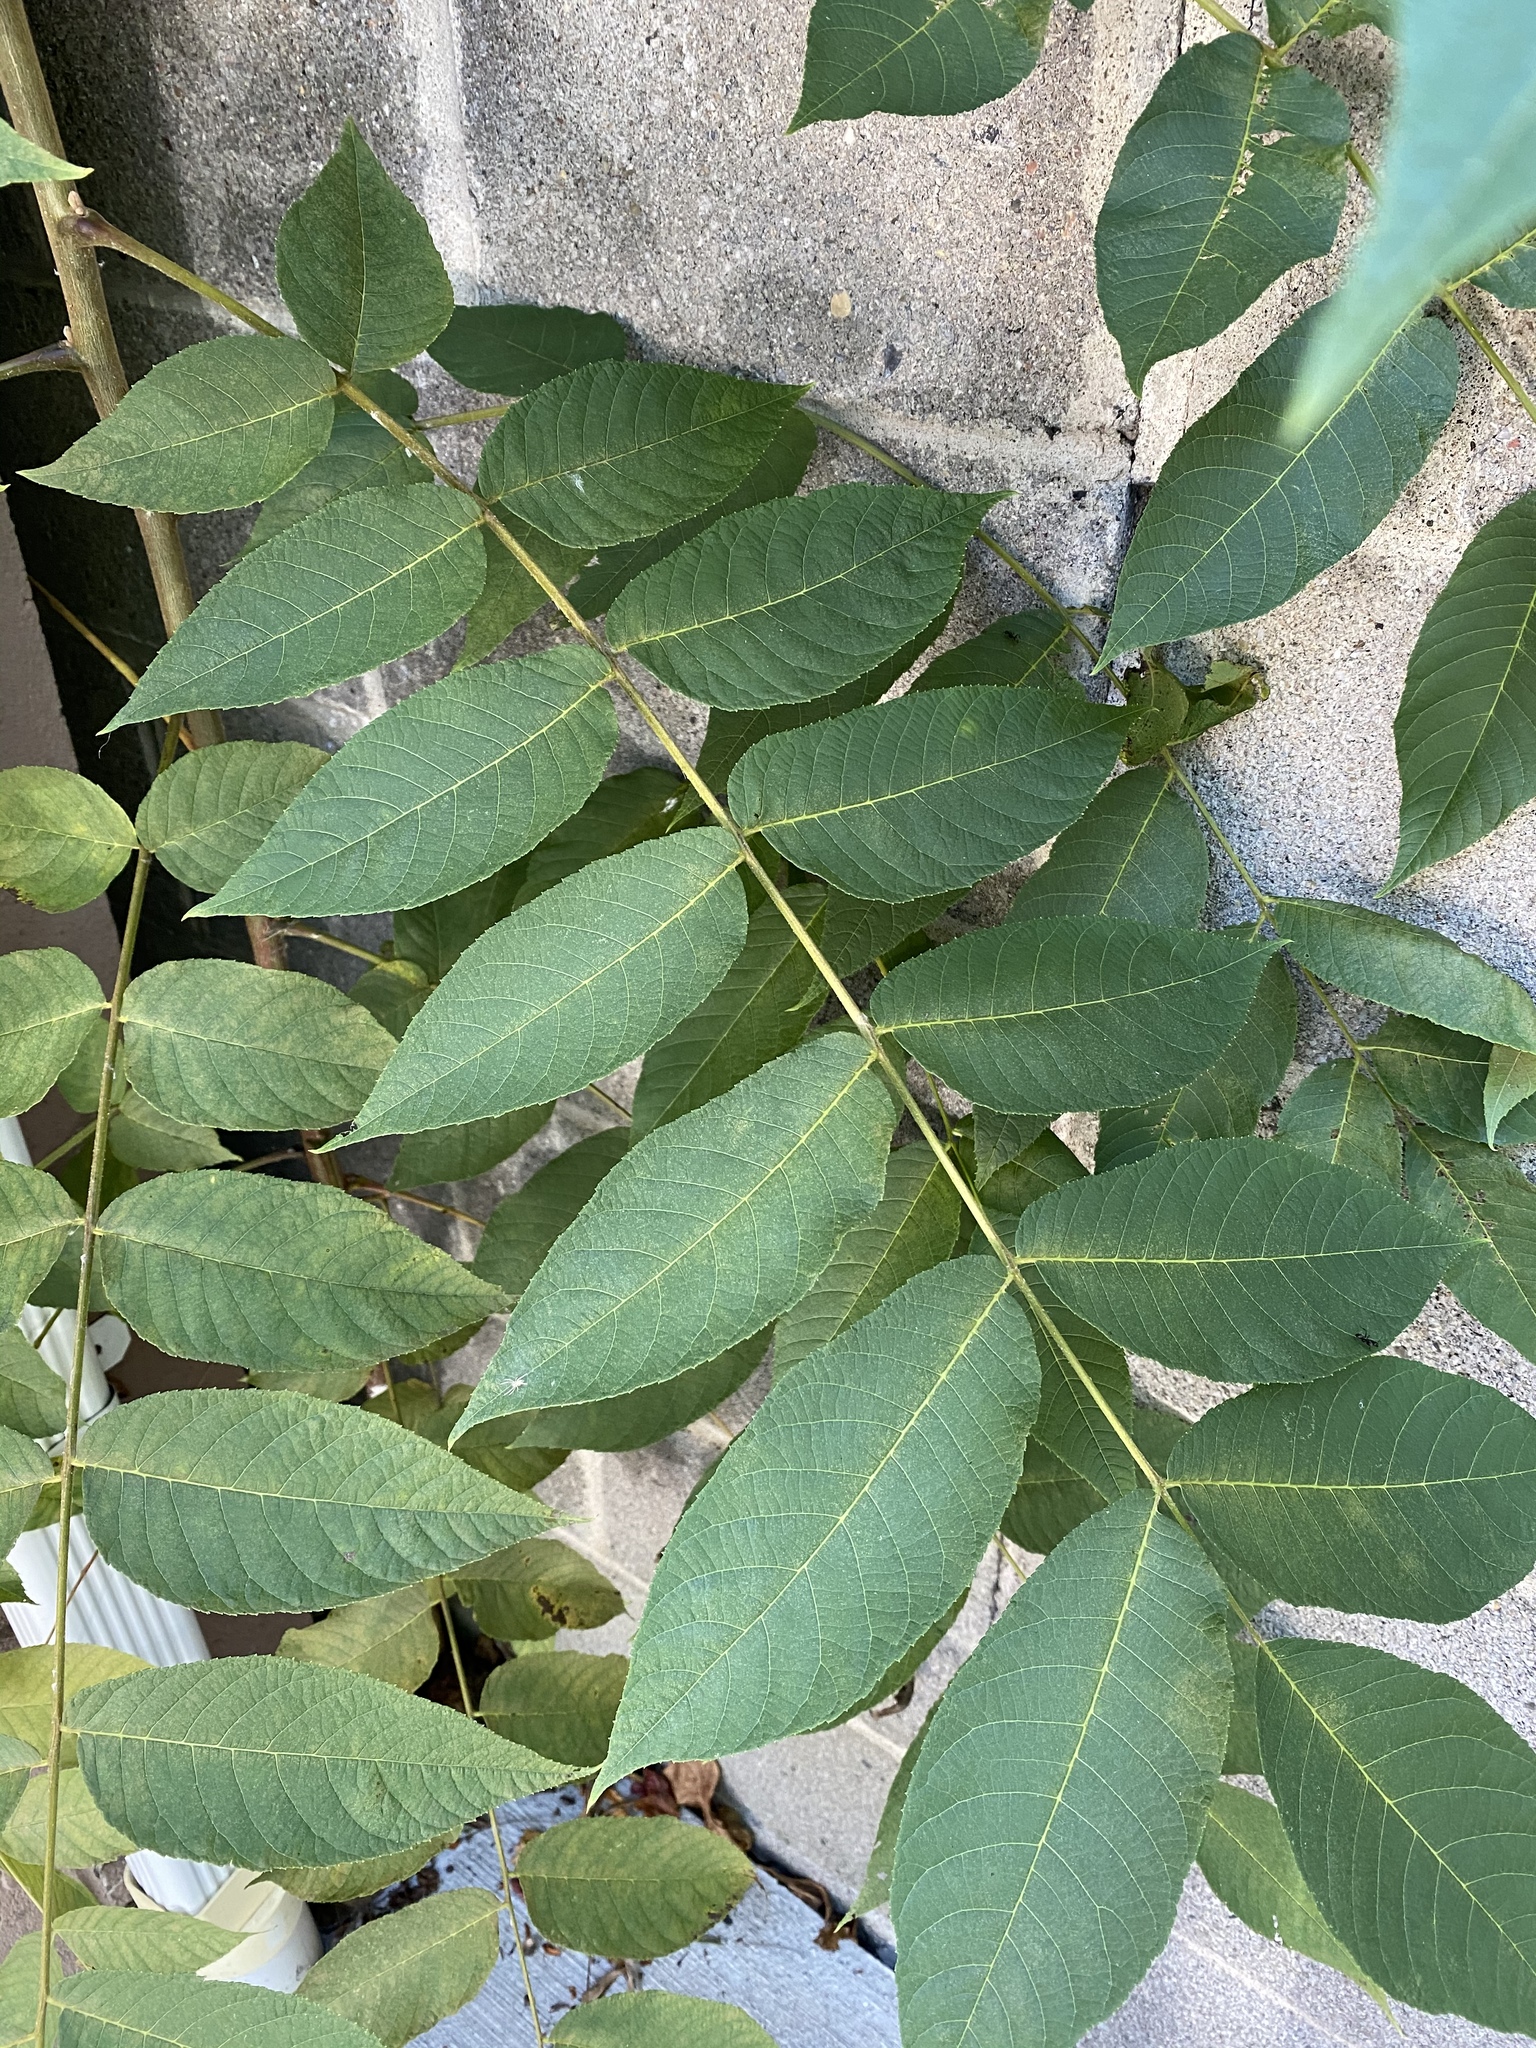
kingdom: Plantae
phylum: Tracheophyta
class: Magnoliopsida
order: Sapindales
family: Simaroubaceae
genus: Ailanthus
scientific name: Ailanthus altissima
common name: Tree-of-heaven
